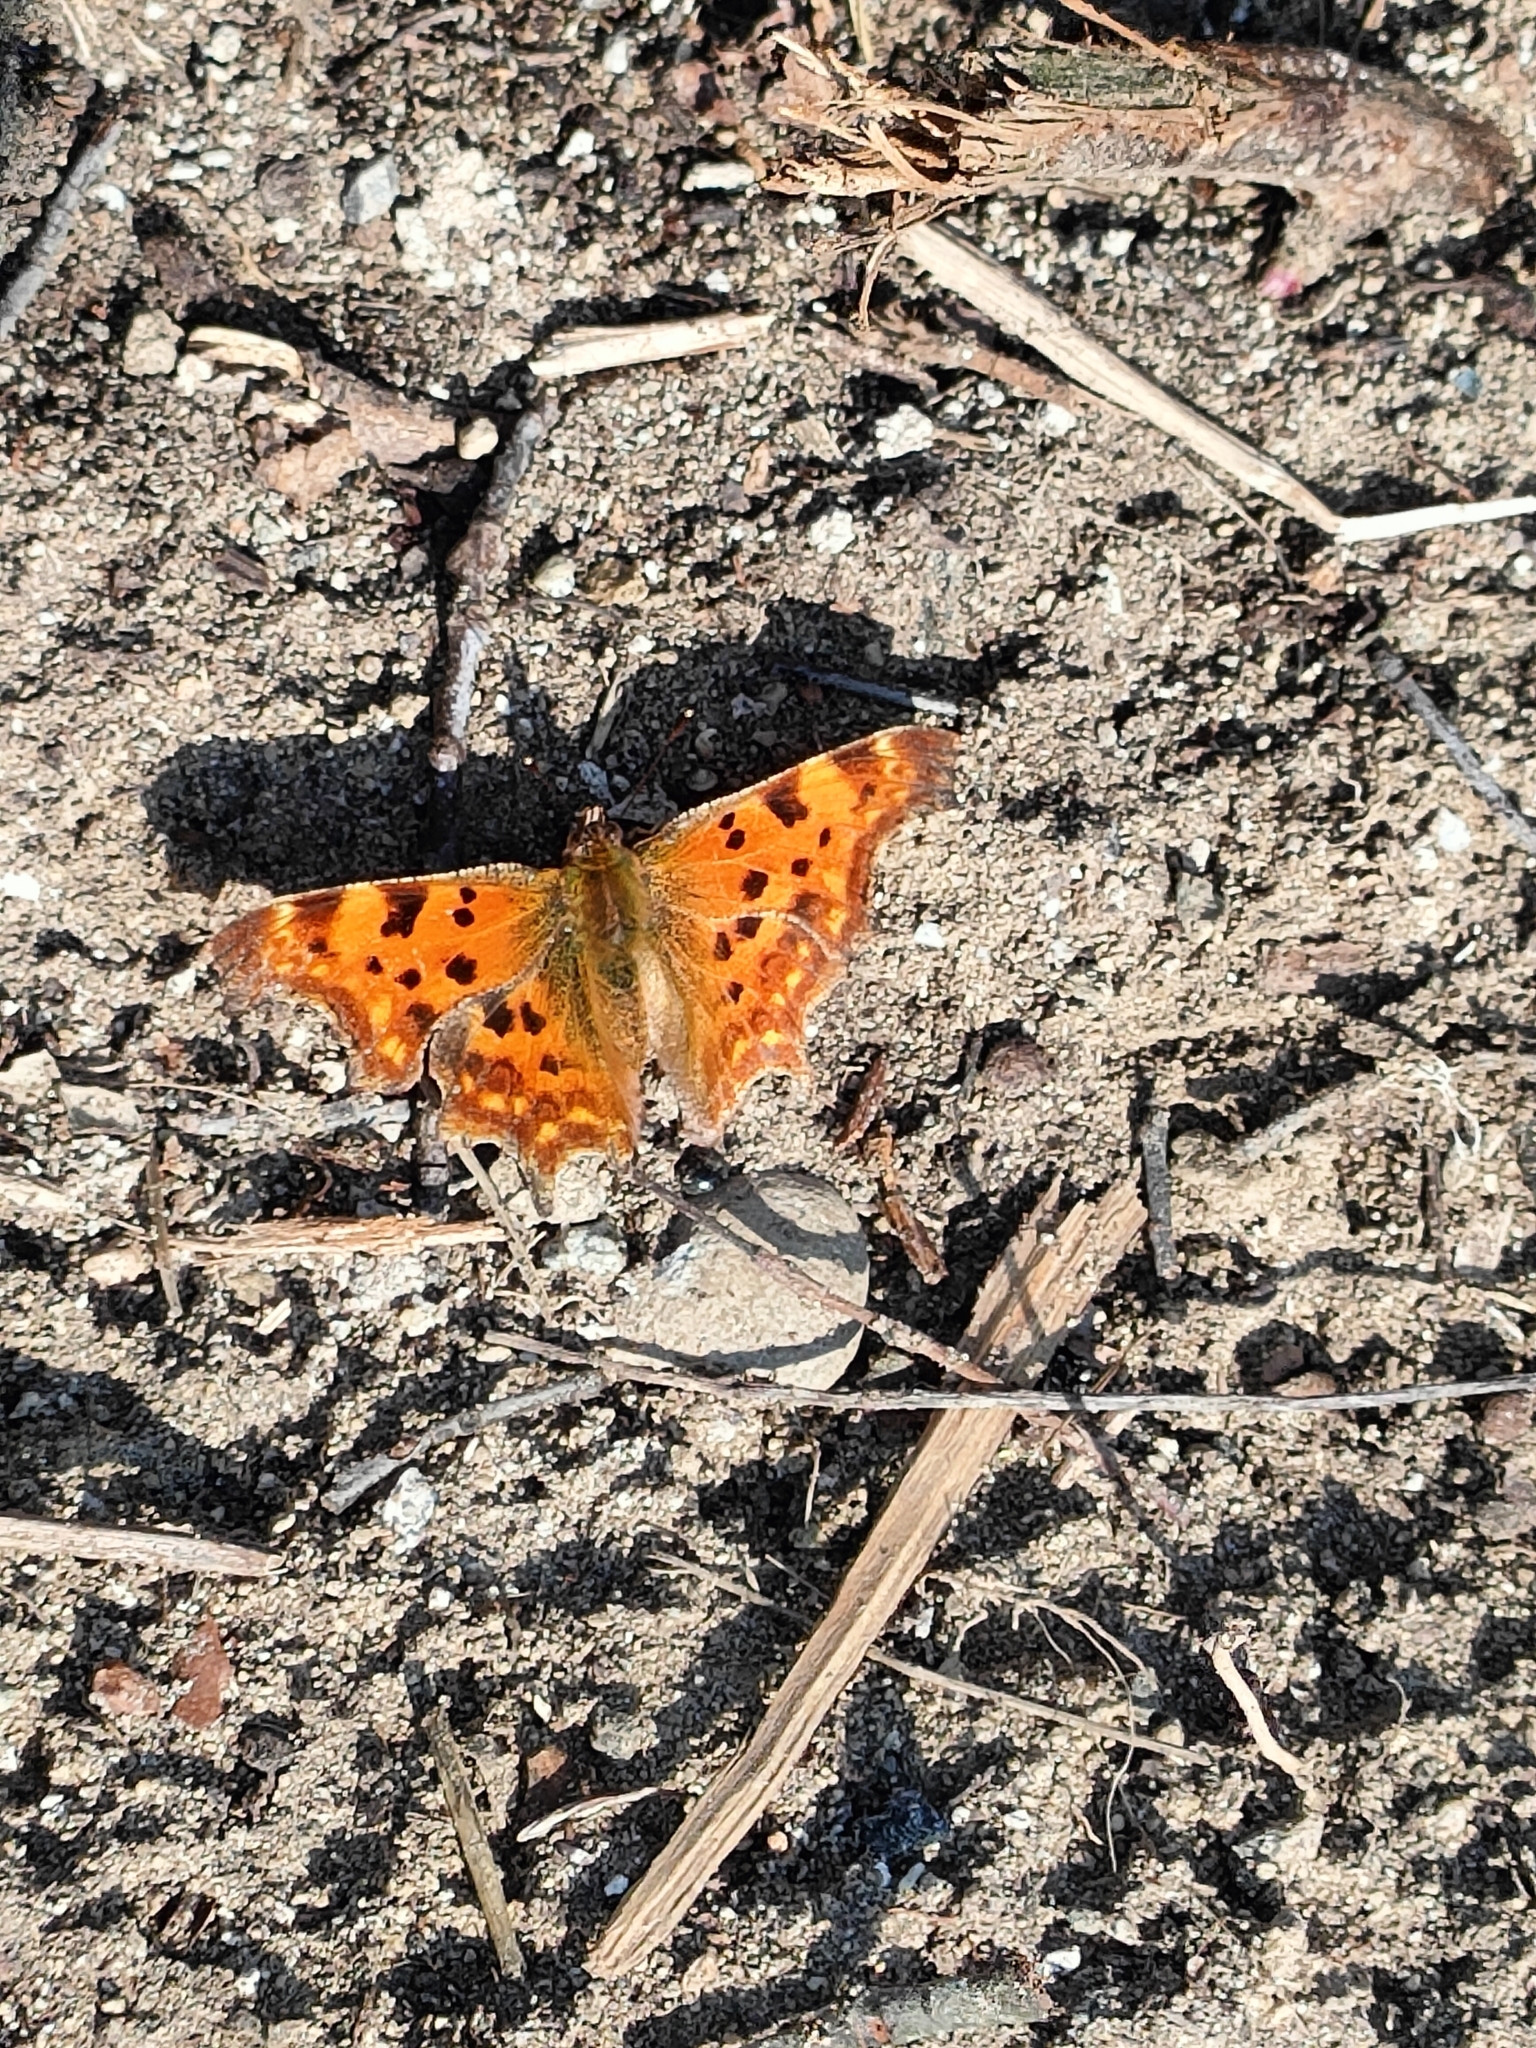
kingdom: Animalia
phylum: Arthropoda
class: Insecta
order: Lepidoptera
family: Nymphalidae
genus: Polygonia
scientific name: Polygonia c-album
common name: Comma
